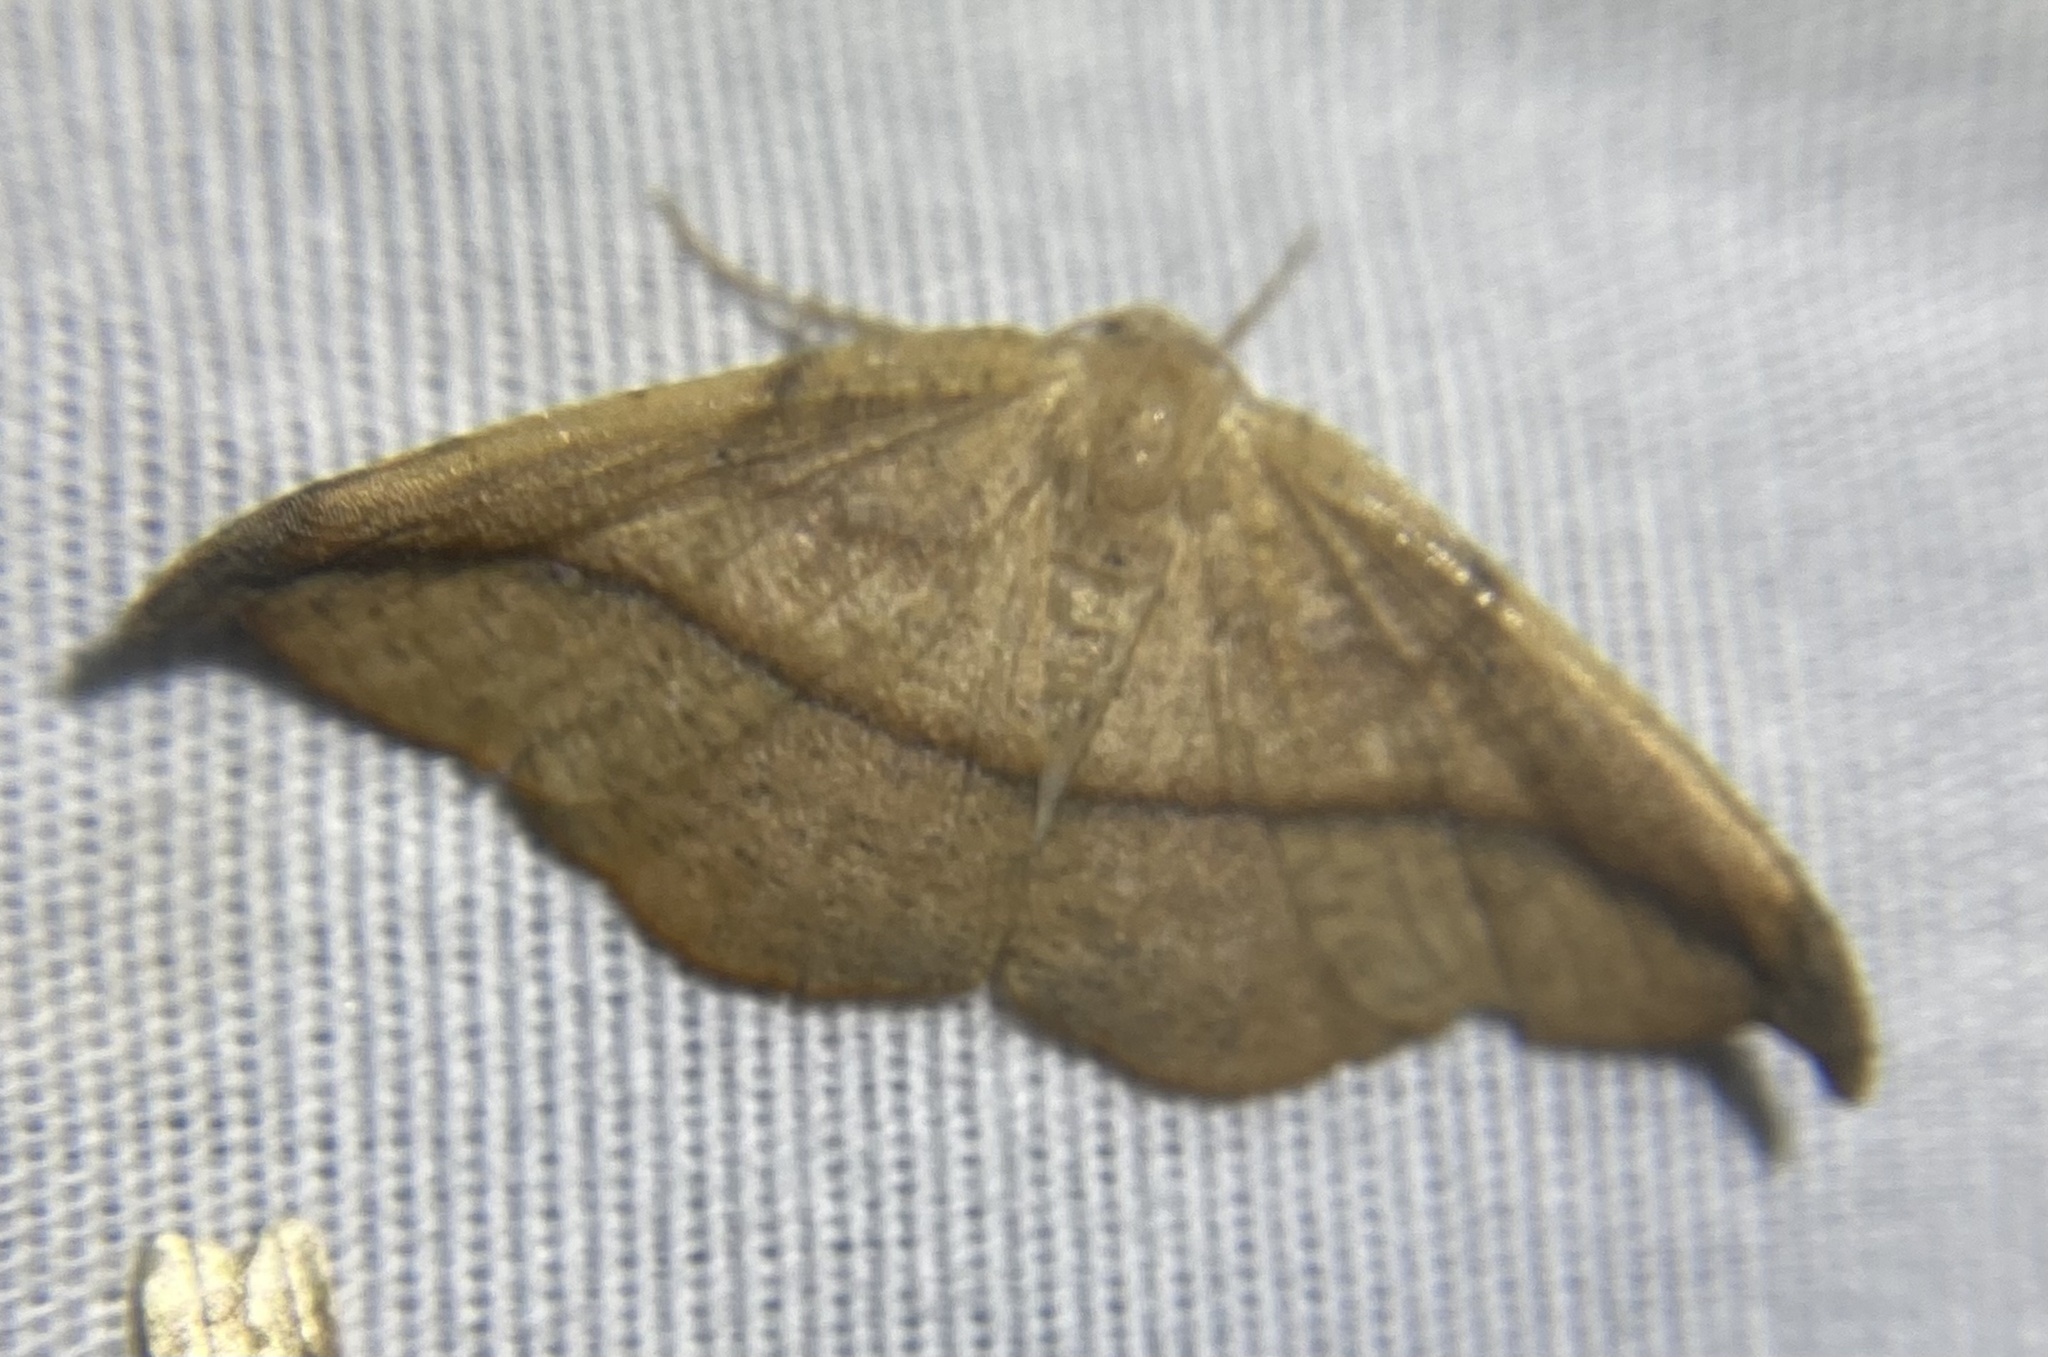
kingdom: Animalia
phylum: Arthropoda
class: Insecta
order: Lepidoptera
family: Geometridae
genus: Patalene
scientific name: Patalene olyzonaria
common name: Juniper geometer moth
